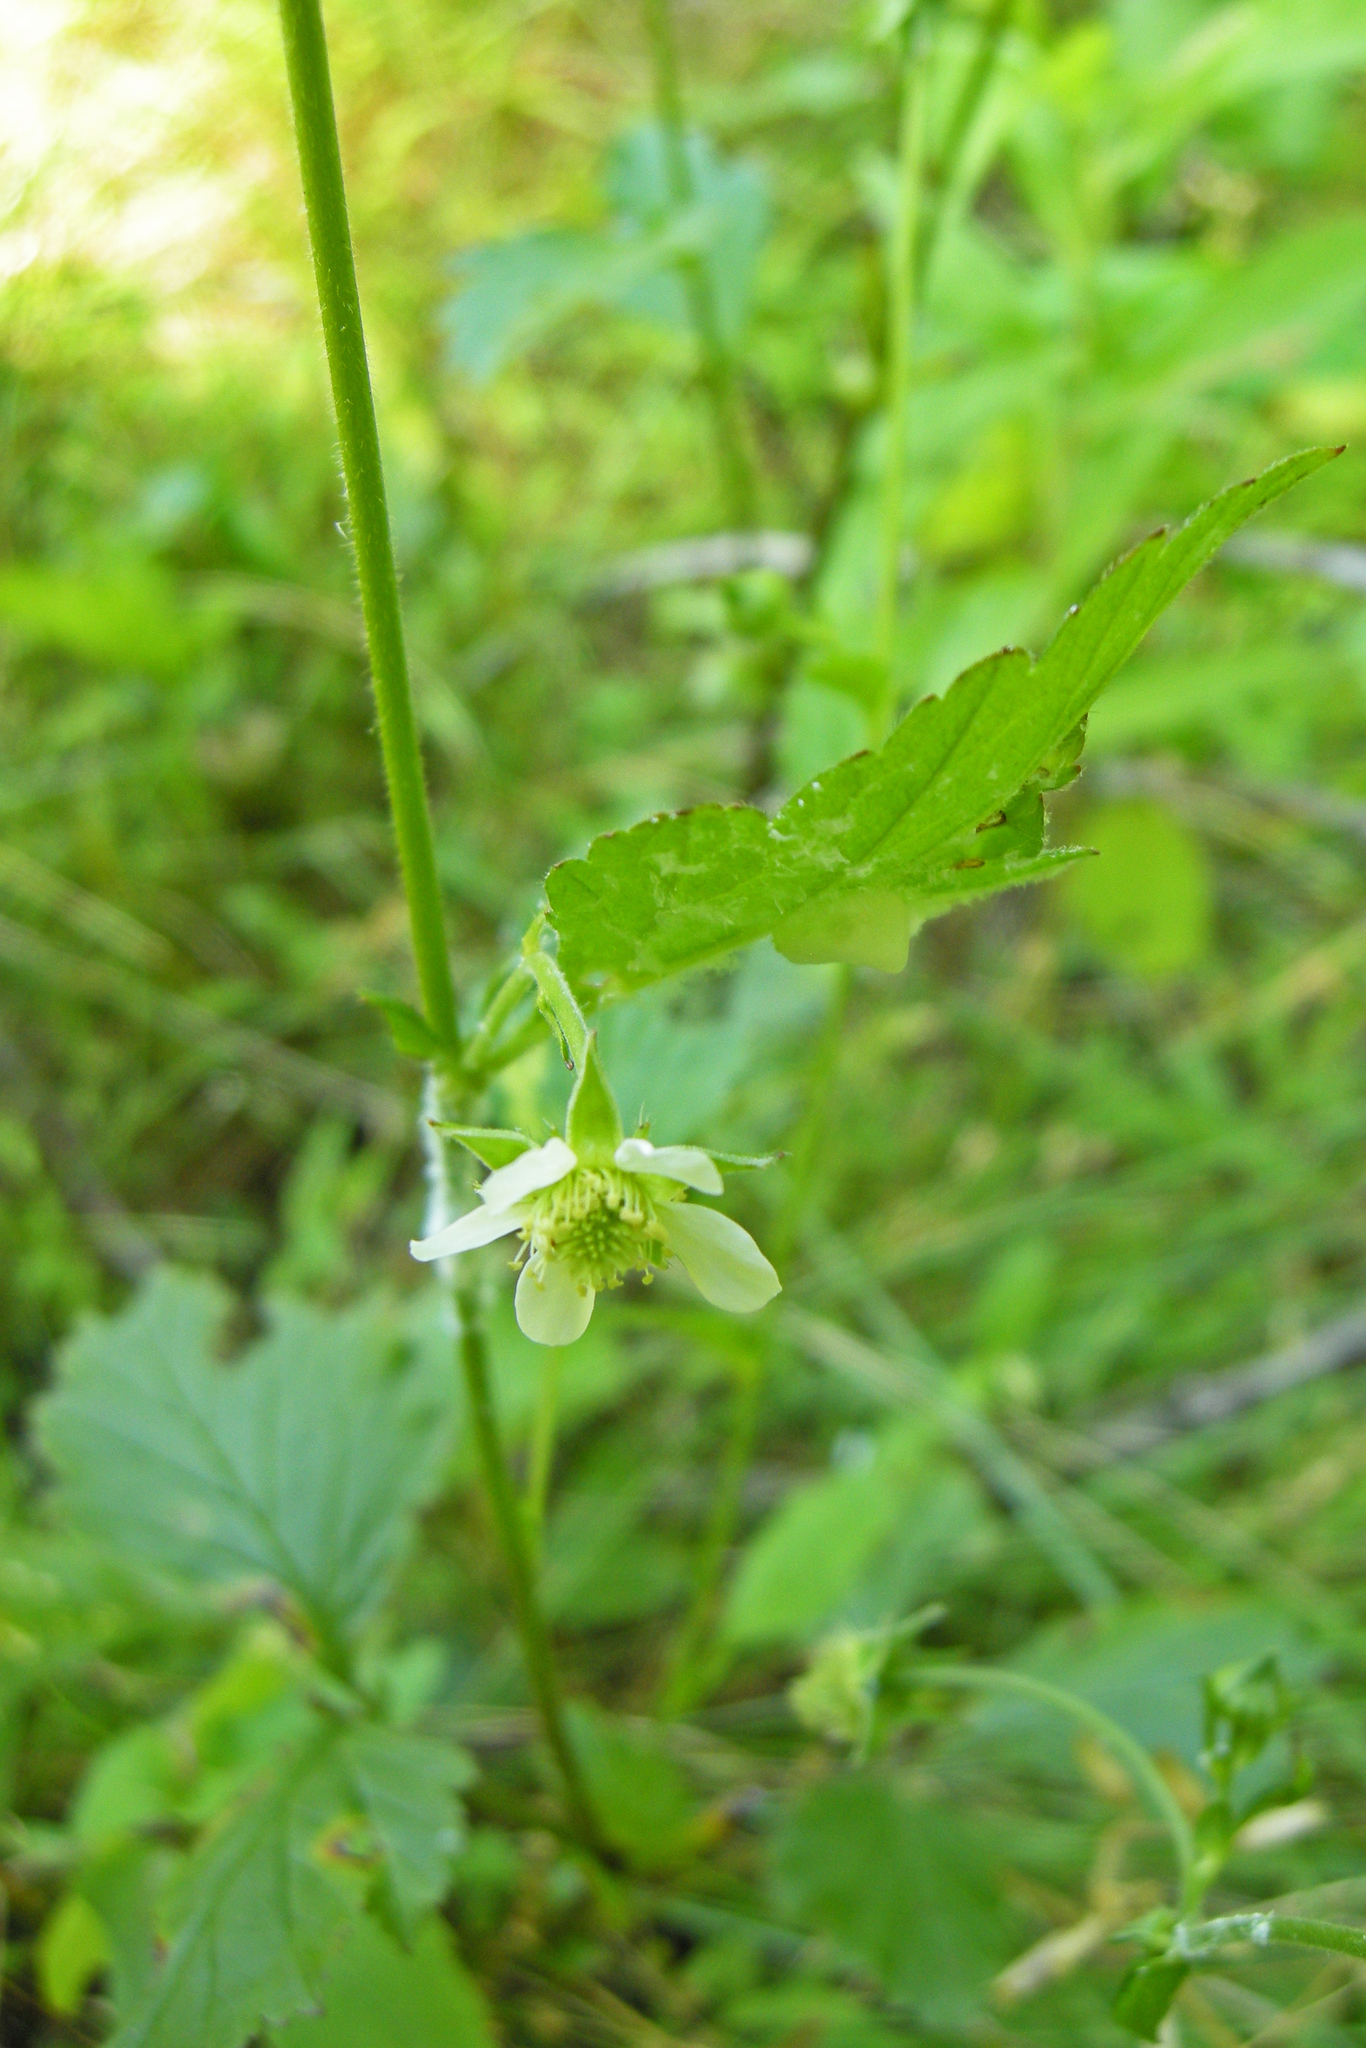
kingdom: Plantae
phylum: Tracheophyta
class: Magnoliopsida
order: Rosales
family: Rosaceae
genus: Geum
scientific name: Geum canadense
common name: White avens
